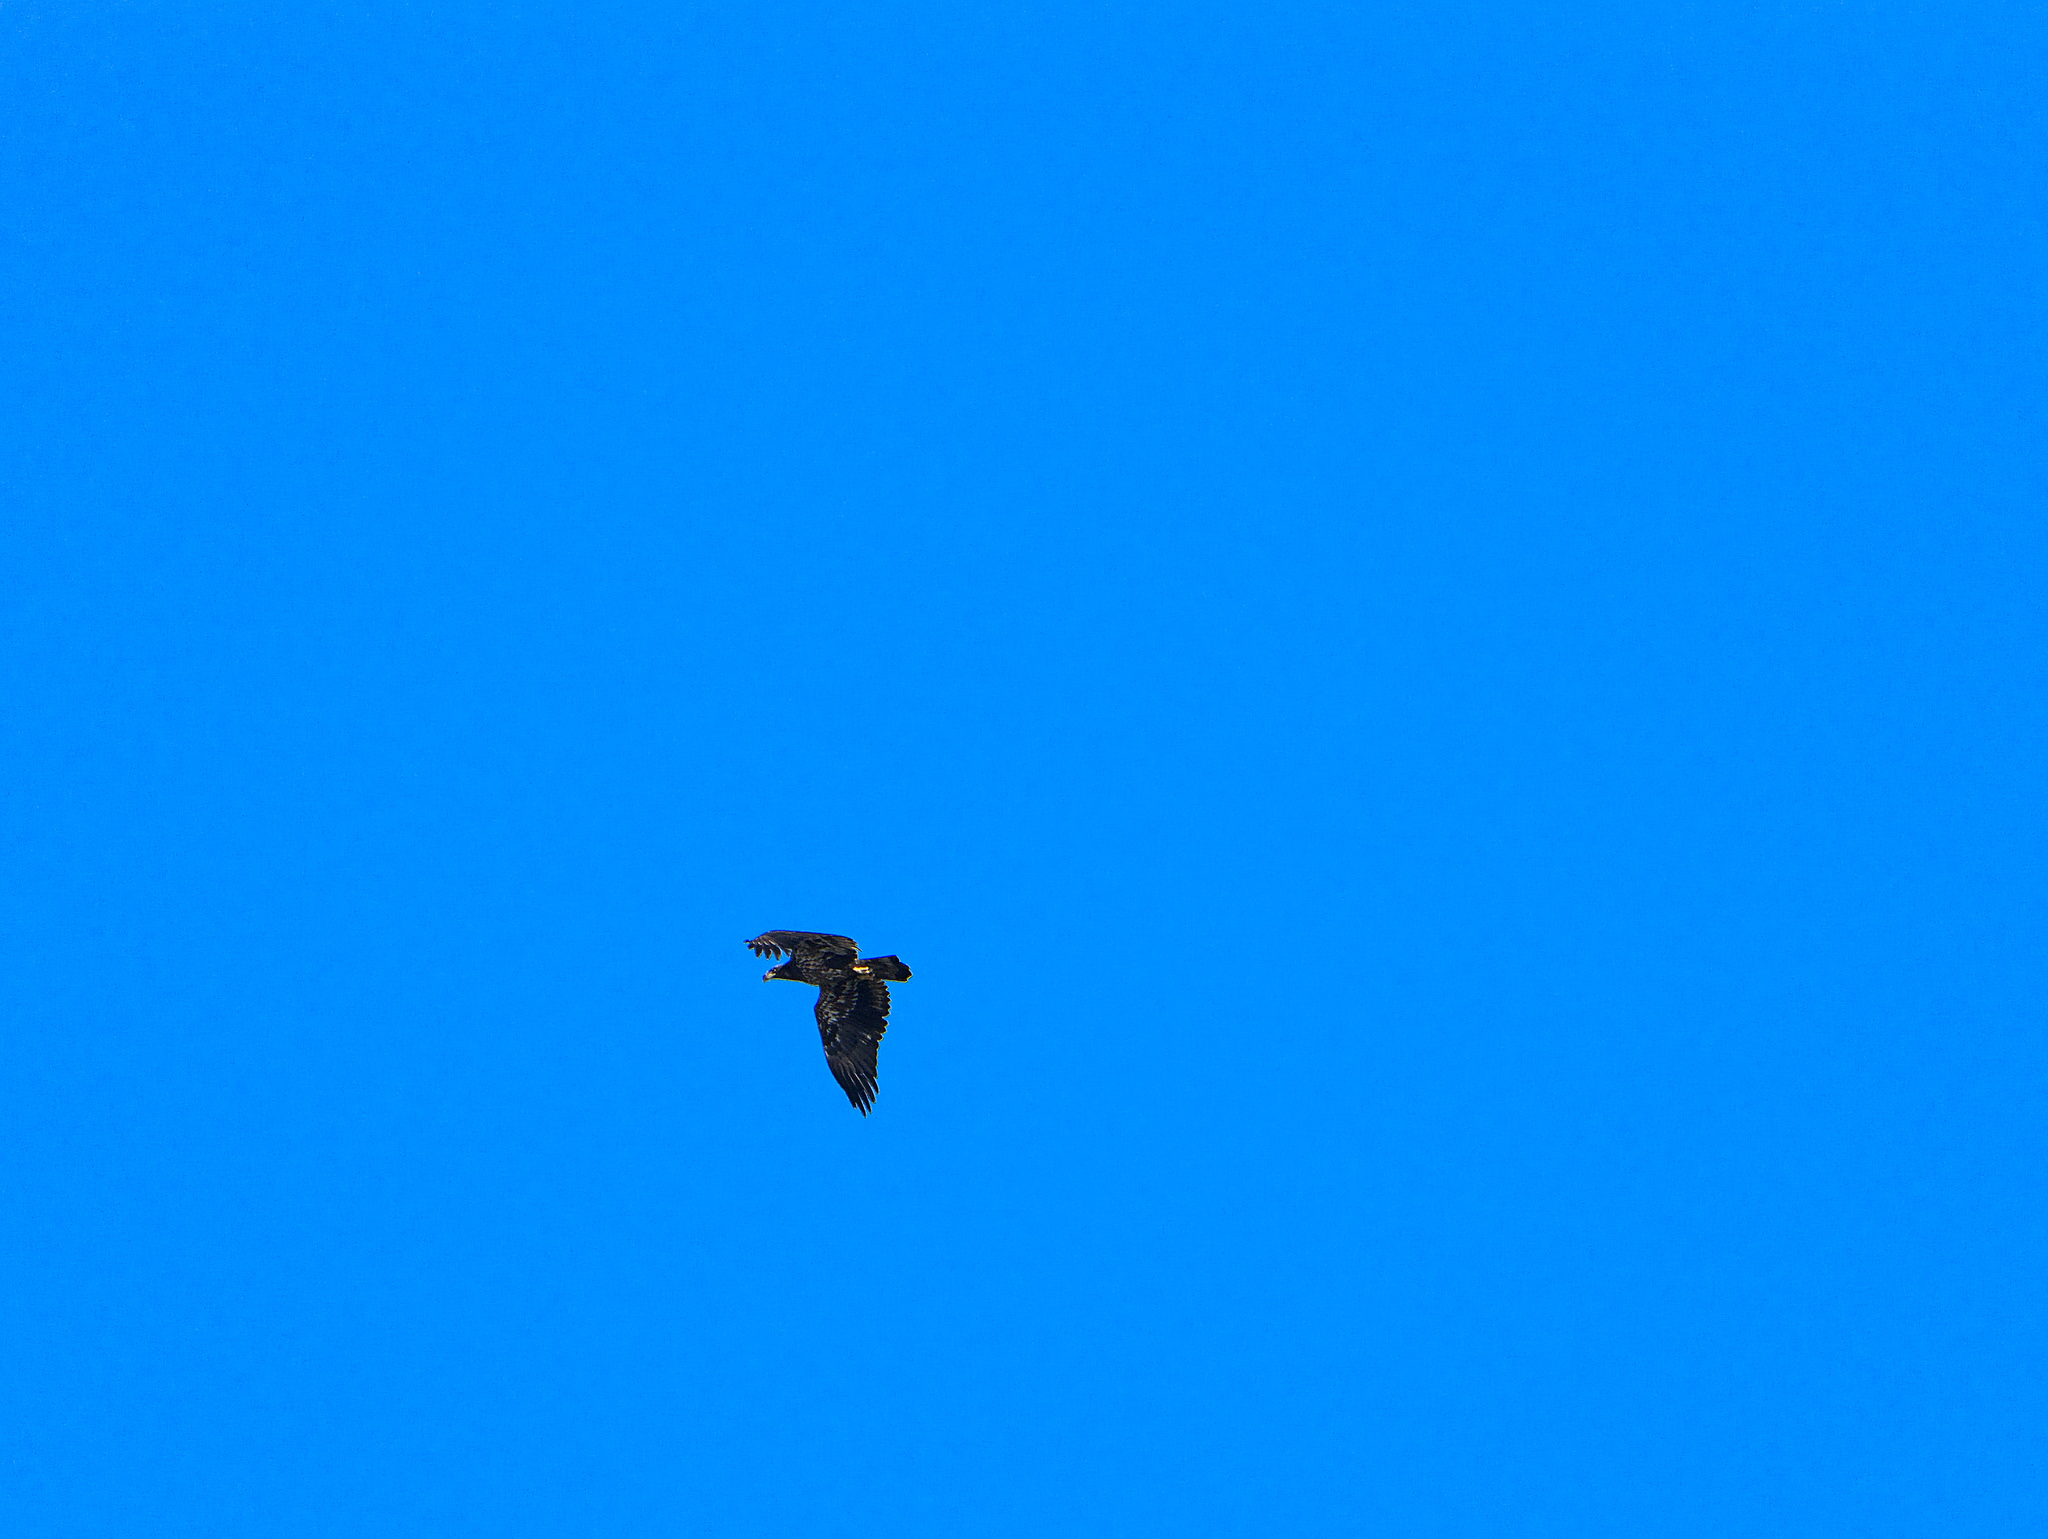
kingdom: Animalia
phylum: Chordata
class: Aves
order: Accipitriformes
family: Accipitridae
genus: Haliaeetus
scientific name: Haliaeetus leucocephalus
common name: Bald eagle
